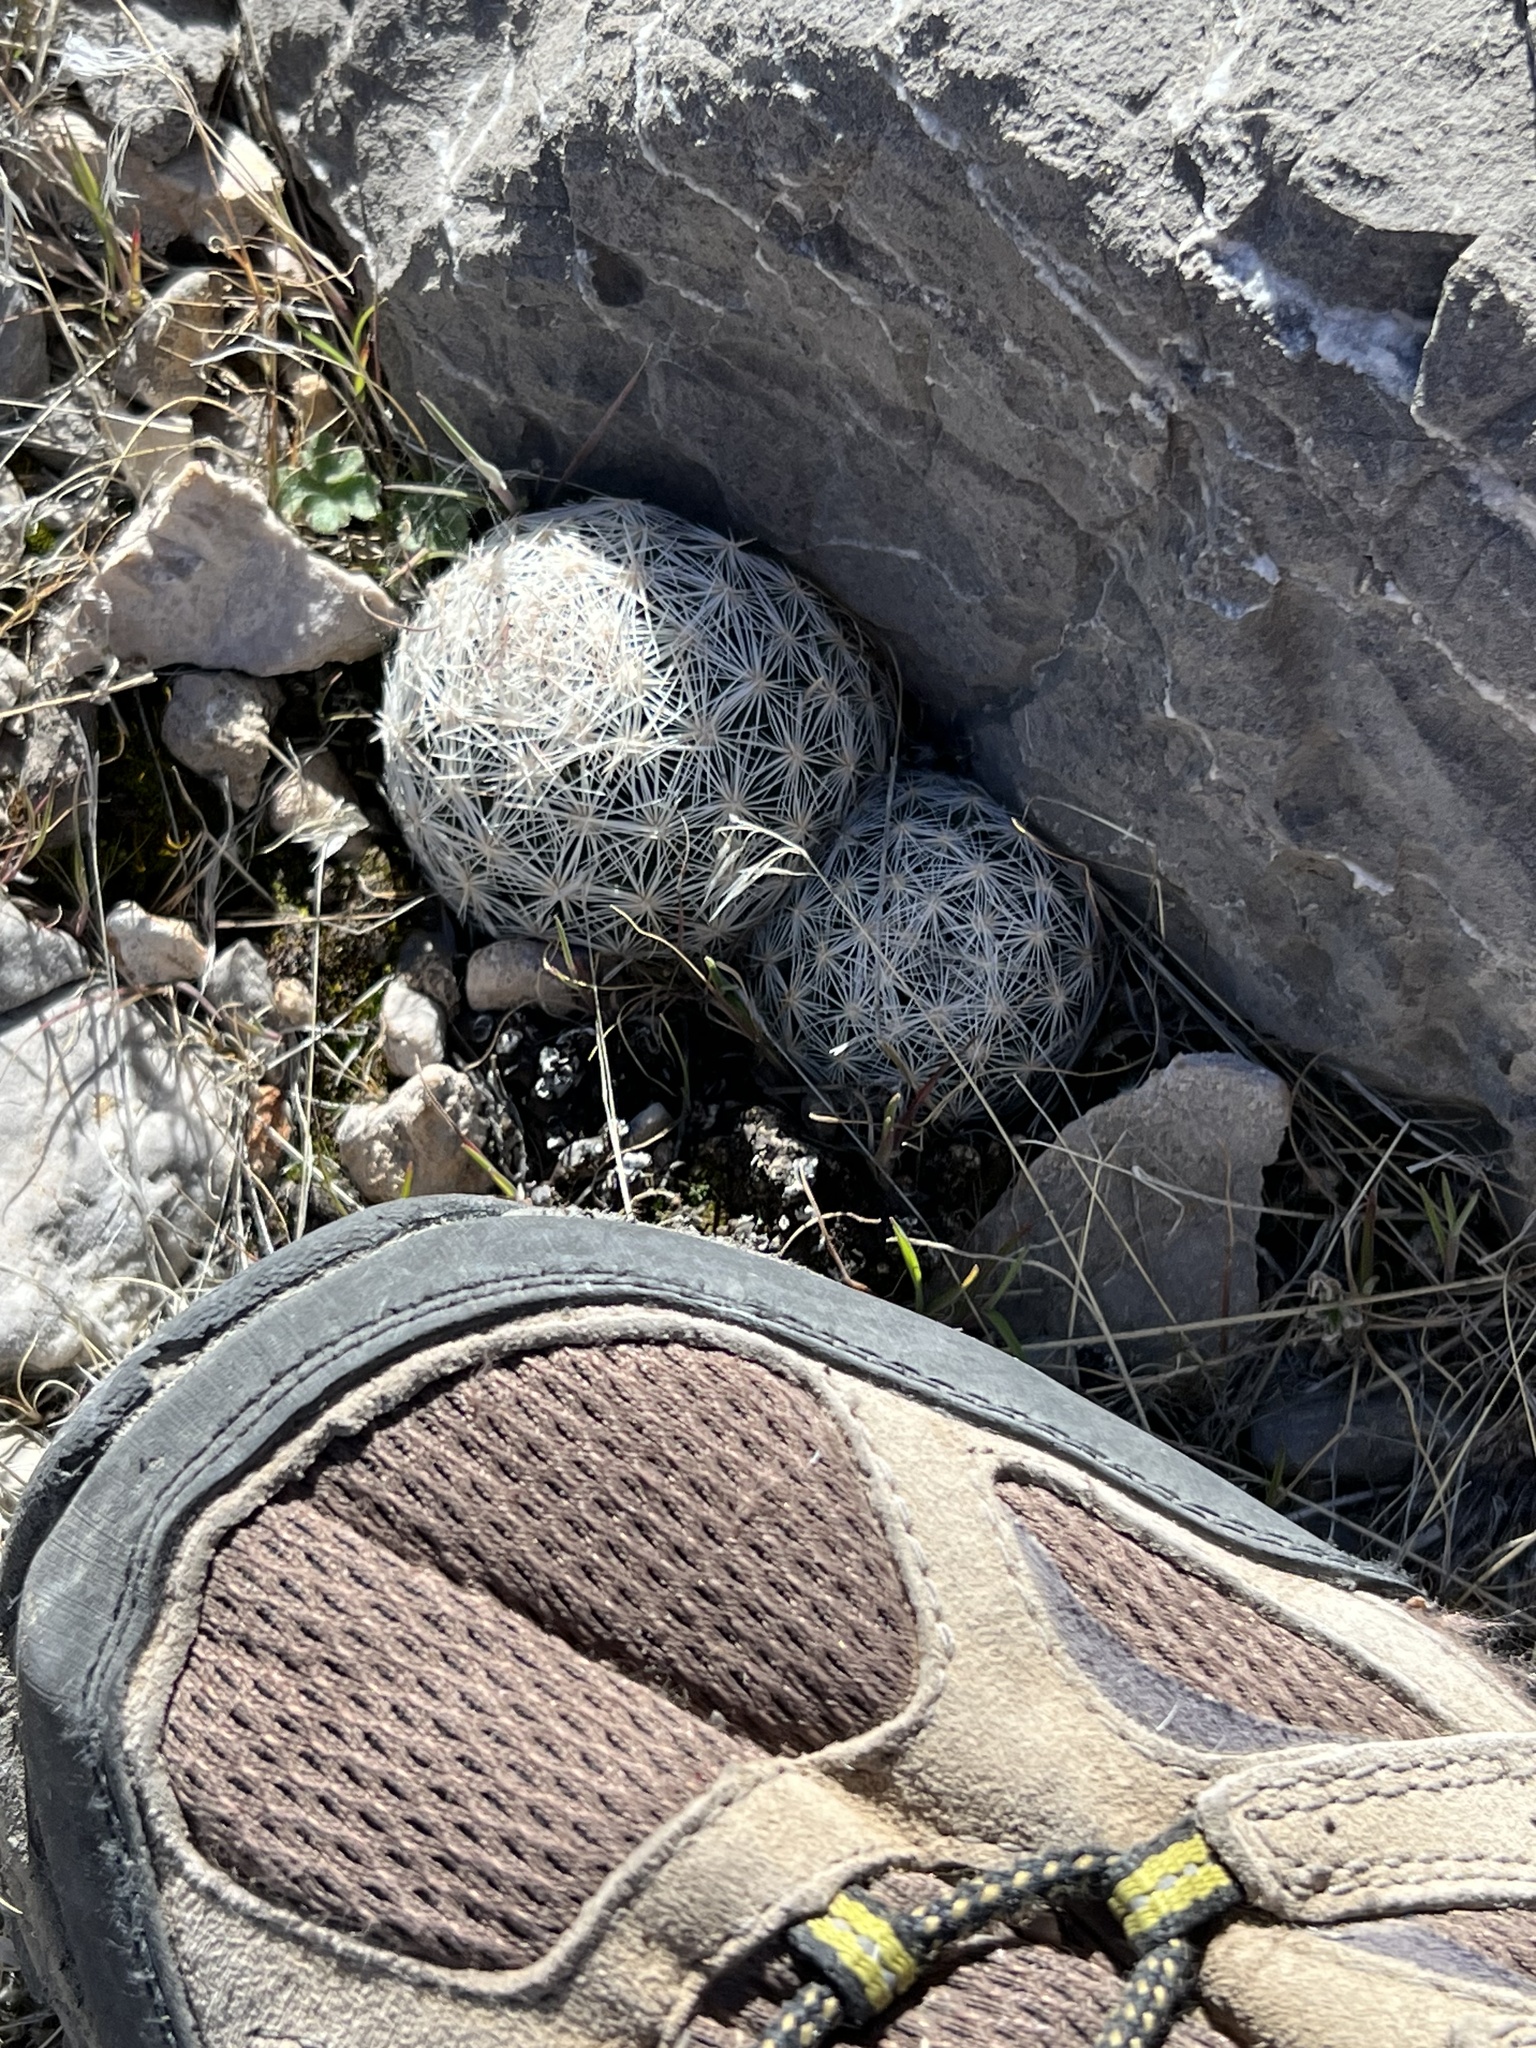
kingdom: Plantae
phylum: Tracheophyta
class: Magnoliopsida
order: Caryophyllales
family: Cactaceae
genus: Pelecyphora
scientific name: Pelecyphora dasyacantha
